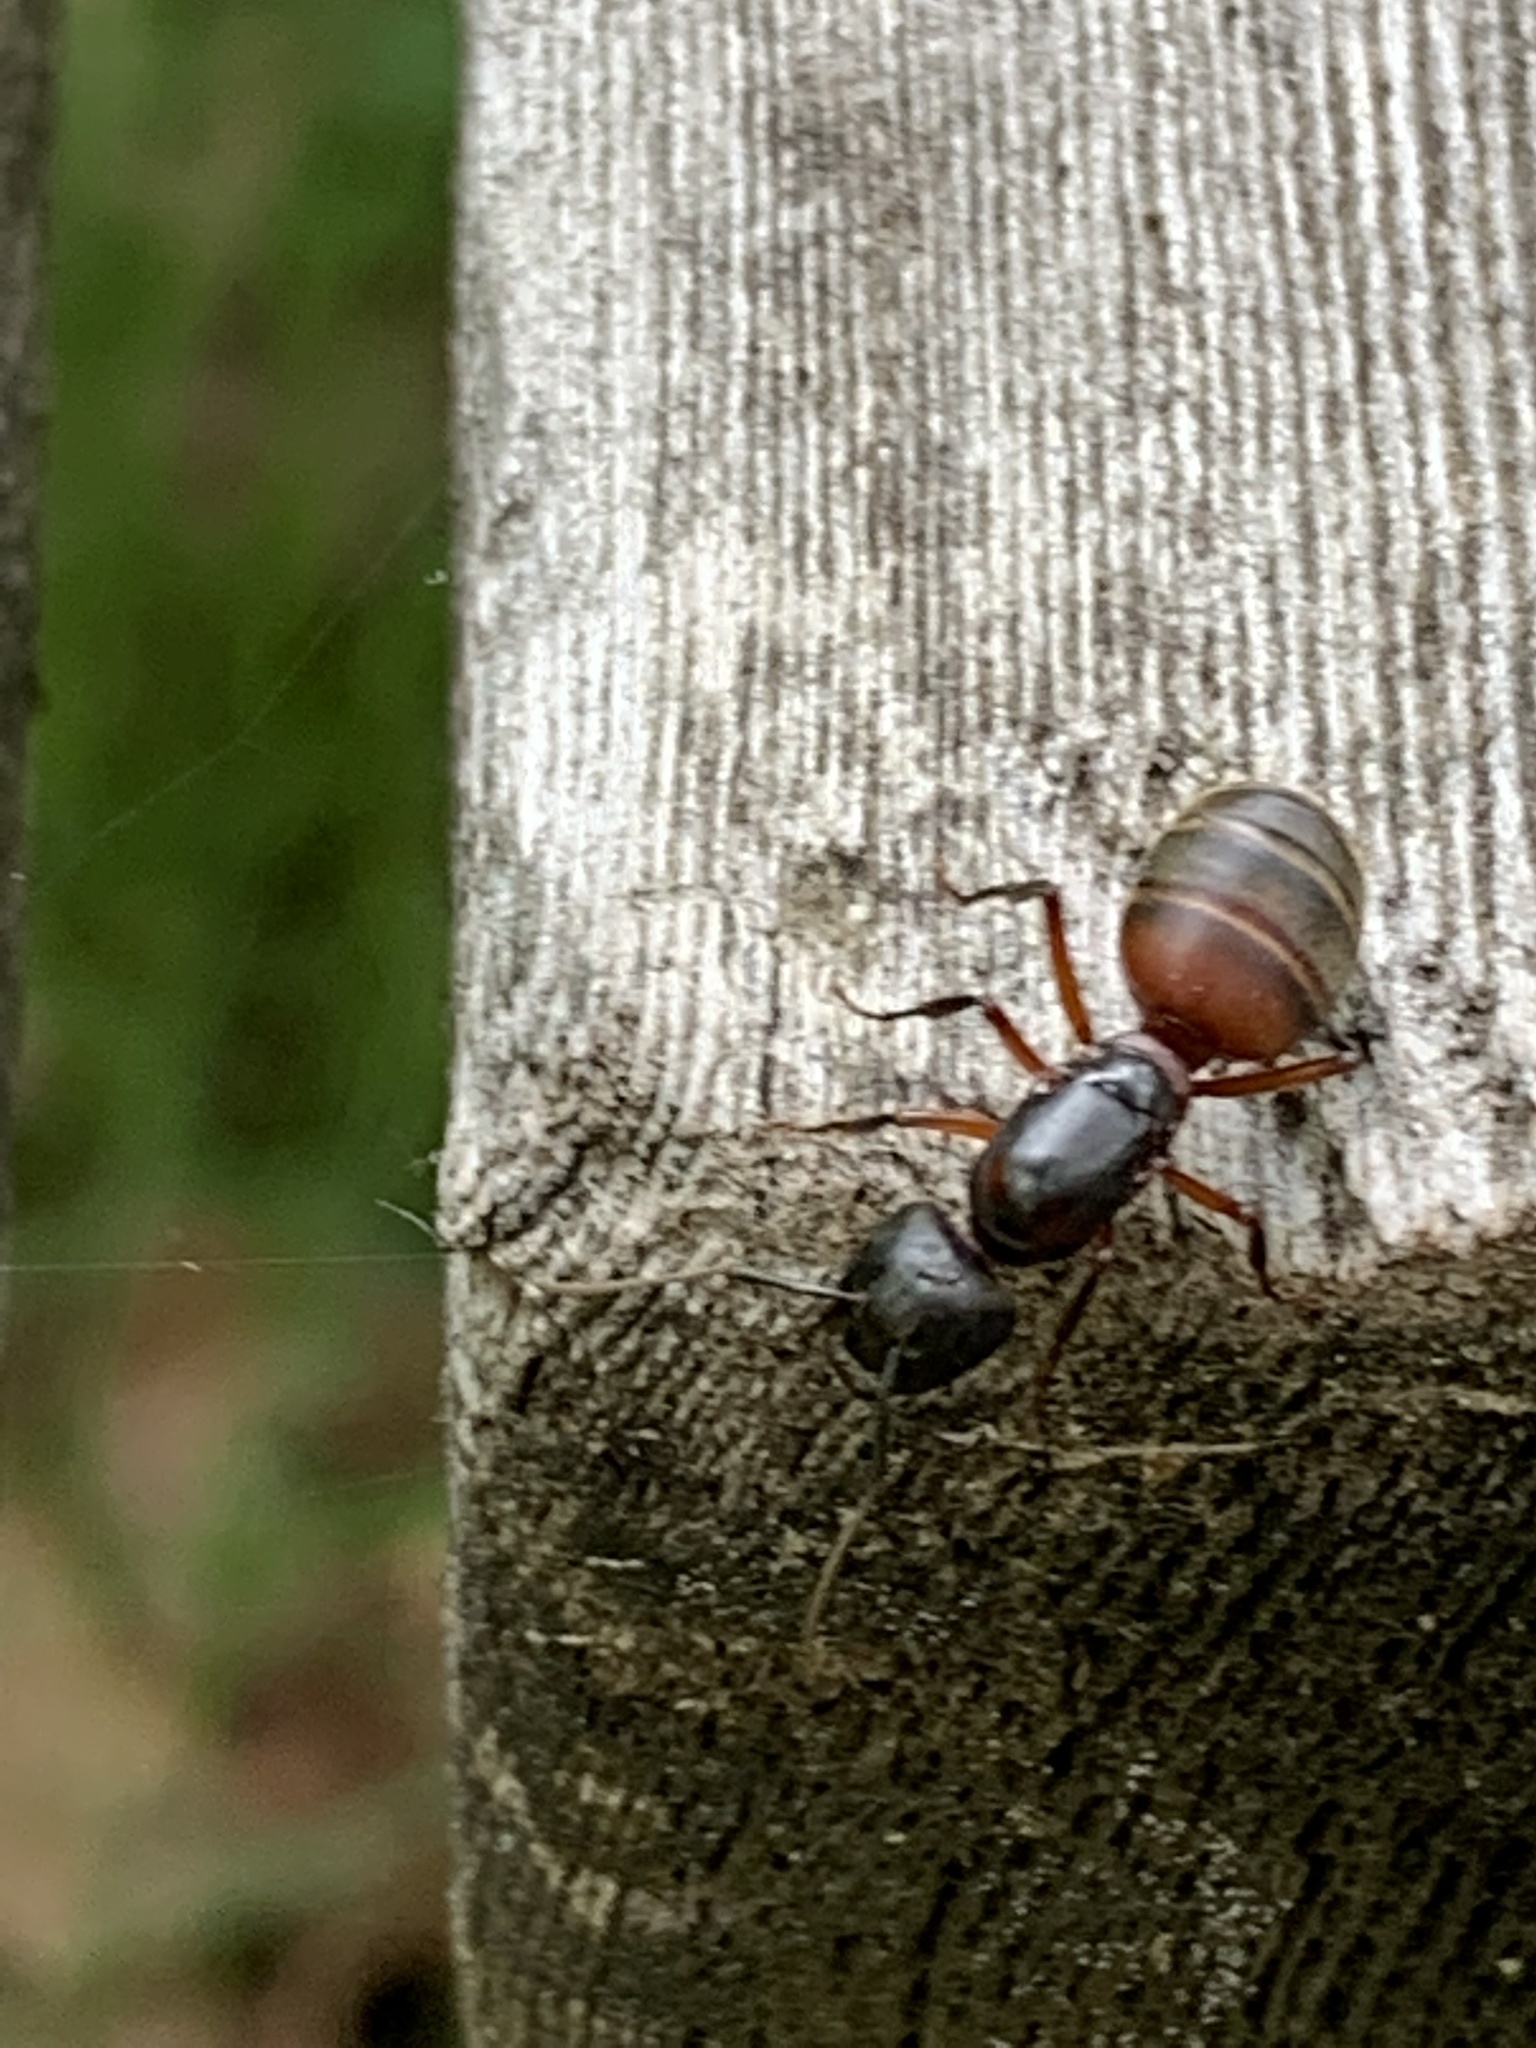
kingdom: Animalia
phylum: Arthropoda
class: Insecta
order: Hymenoptera
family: Formicidae
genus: Camponotus
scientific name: Camponotus chromaiodes
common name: Red carpenter ant
